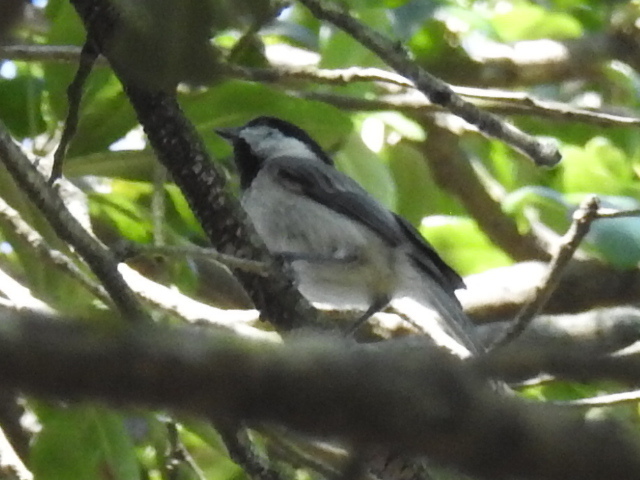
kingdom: Animalia
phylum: Chordata
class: Aves
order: Passeriformes
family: Paridae
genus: Poecile
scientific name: Poecile carolinensis
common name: Carolina chickadee
